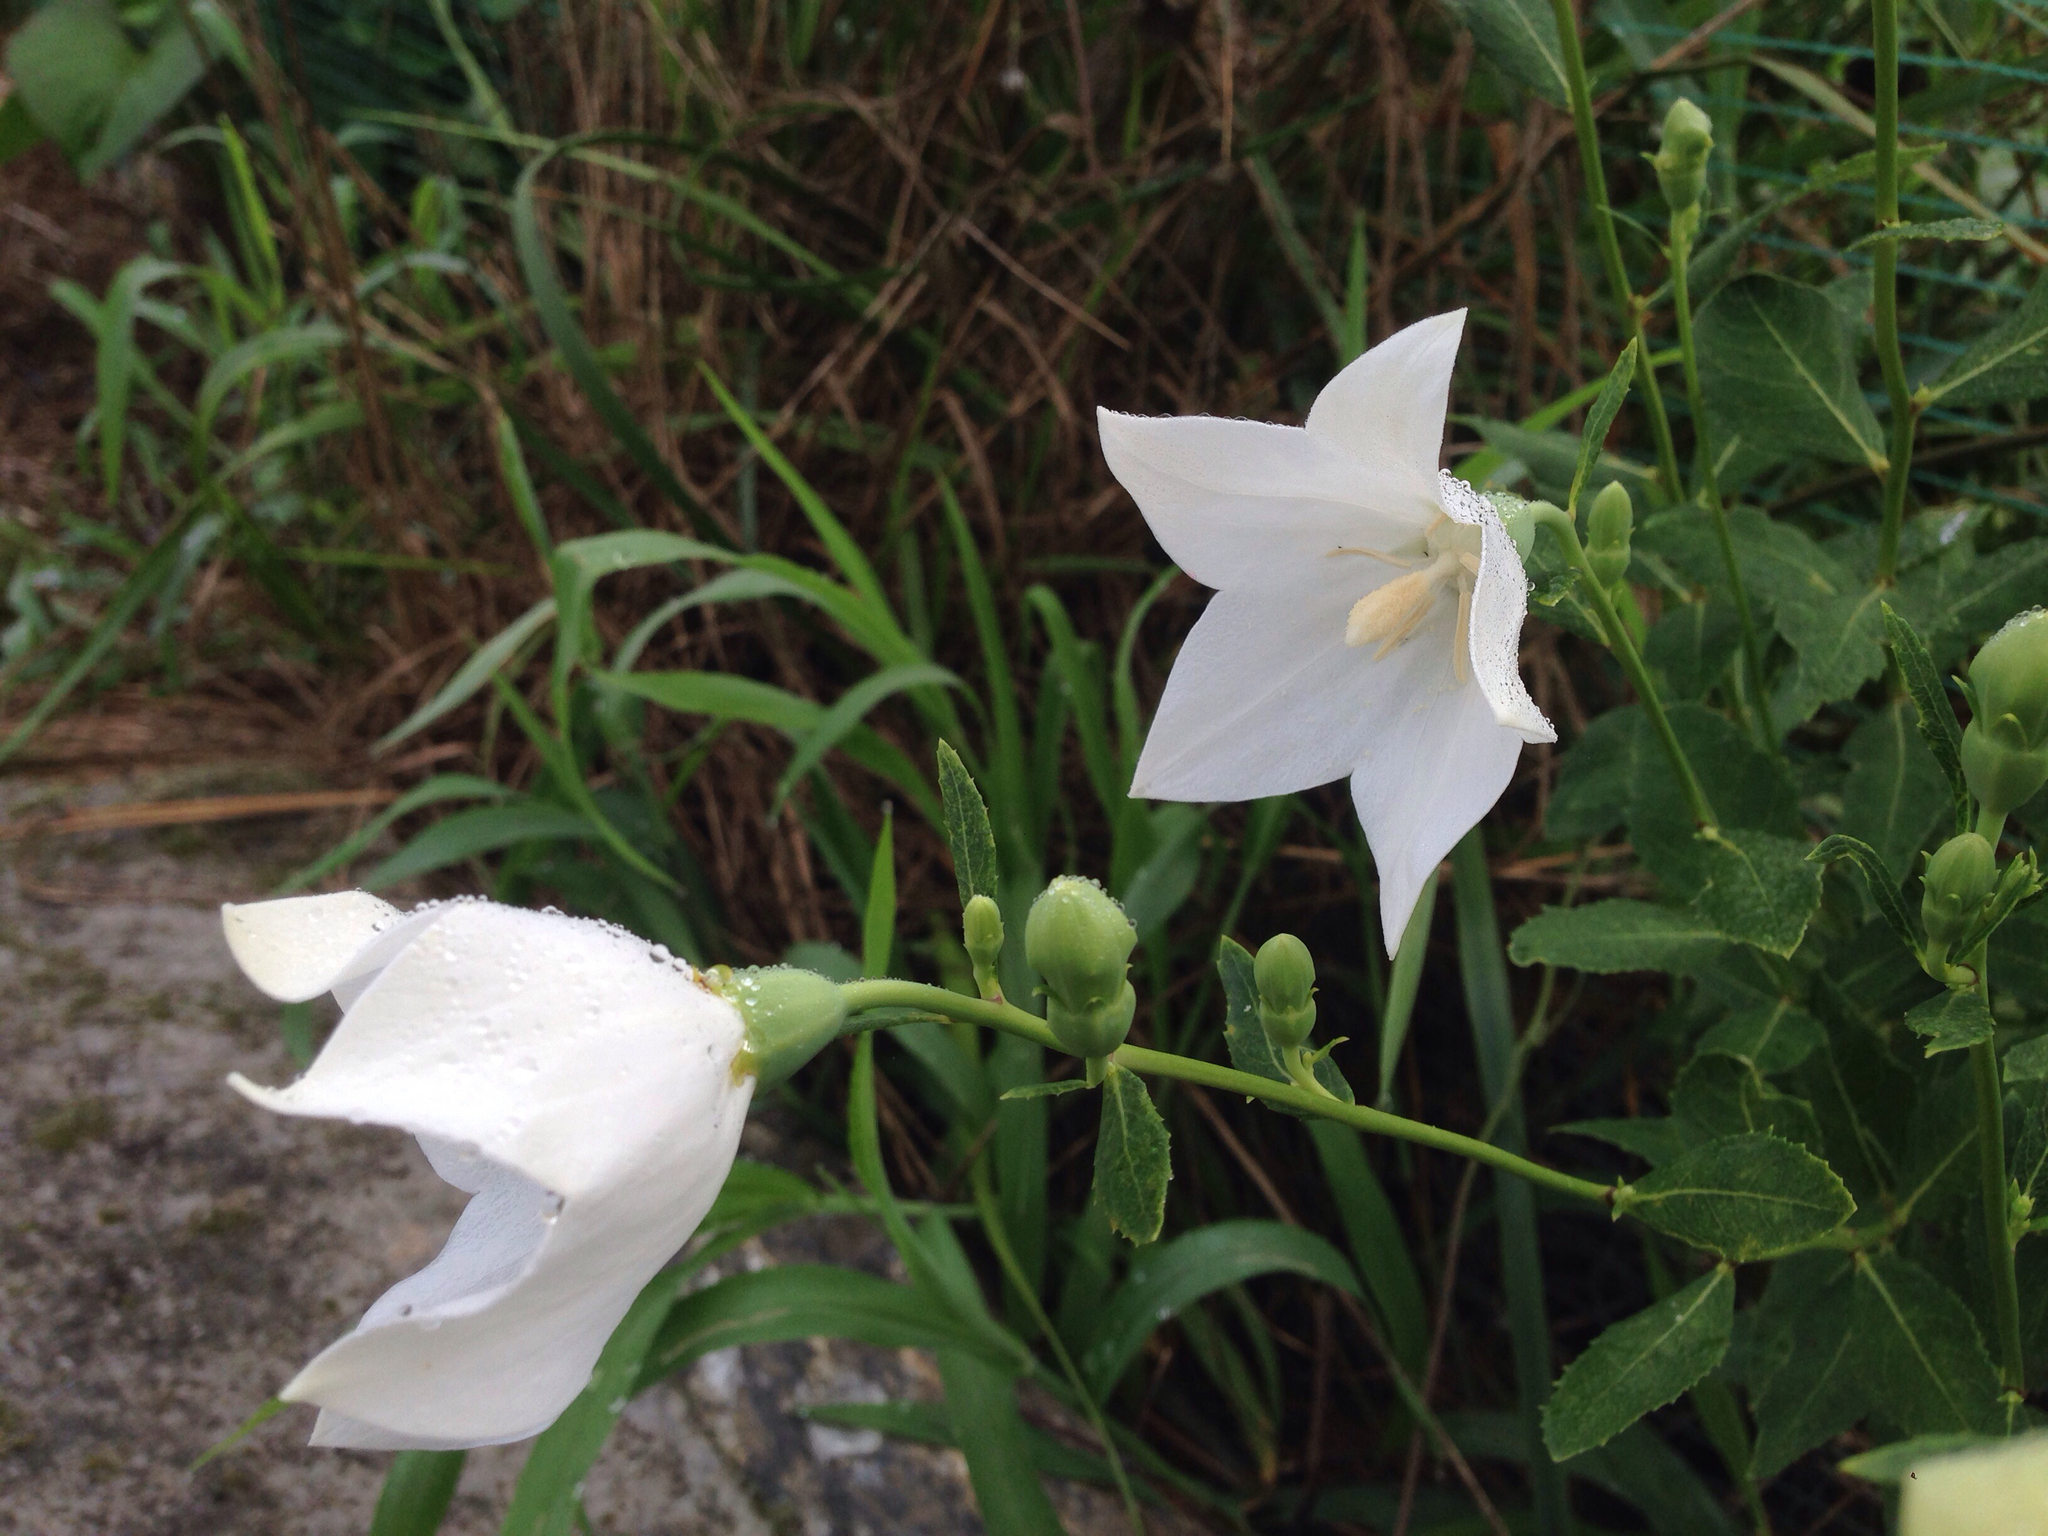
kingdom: Plantae
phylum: Tracheophyta
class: Magnoliopsida
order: Asterales
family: Campanulaceae
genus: Platycodon
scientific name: Platycodon grandiflorus
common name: Balloon-flower
